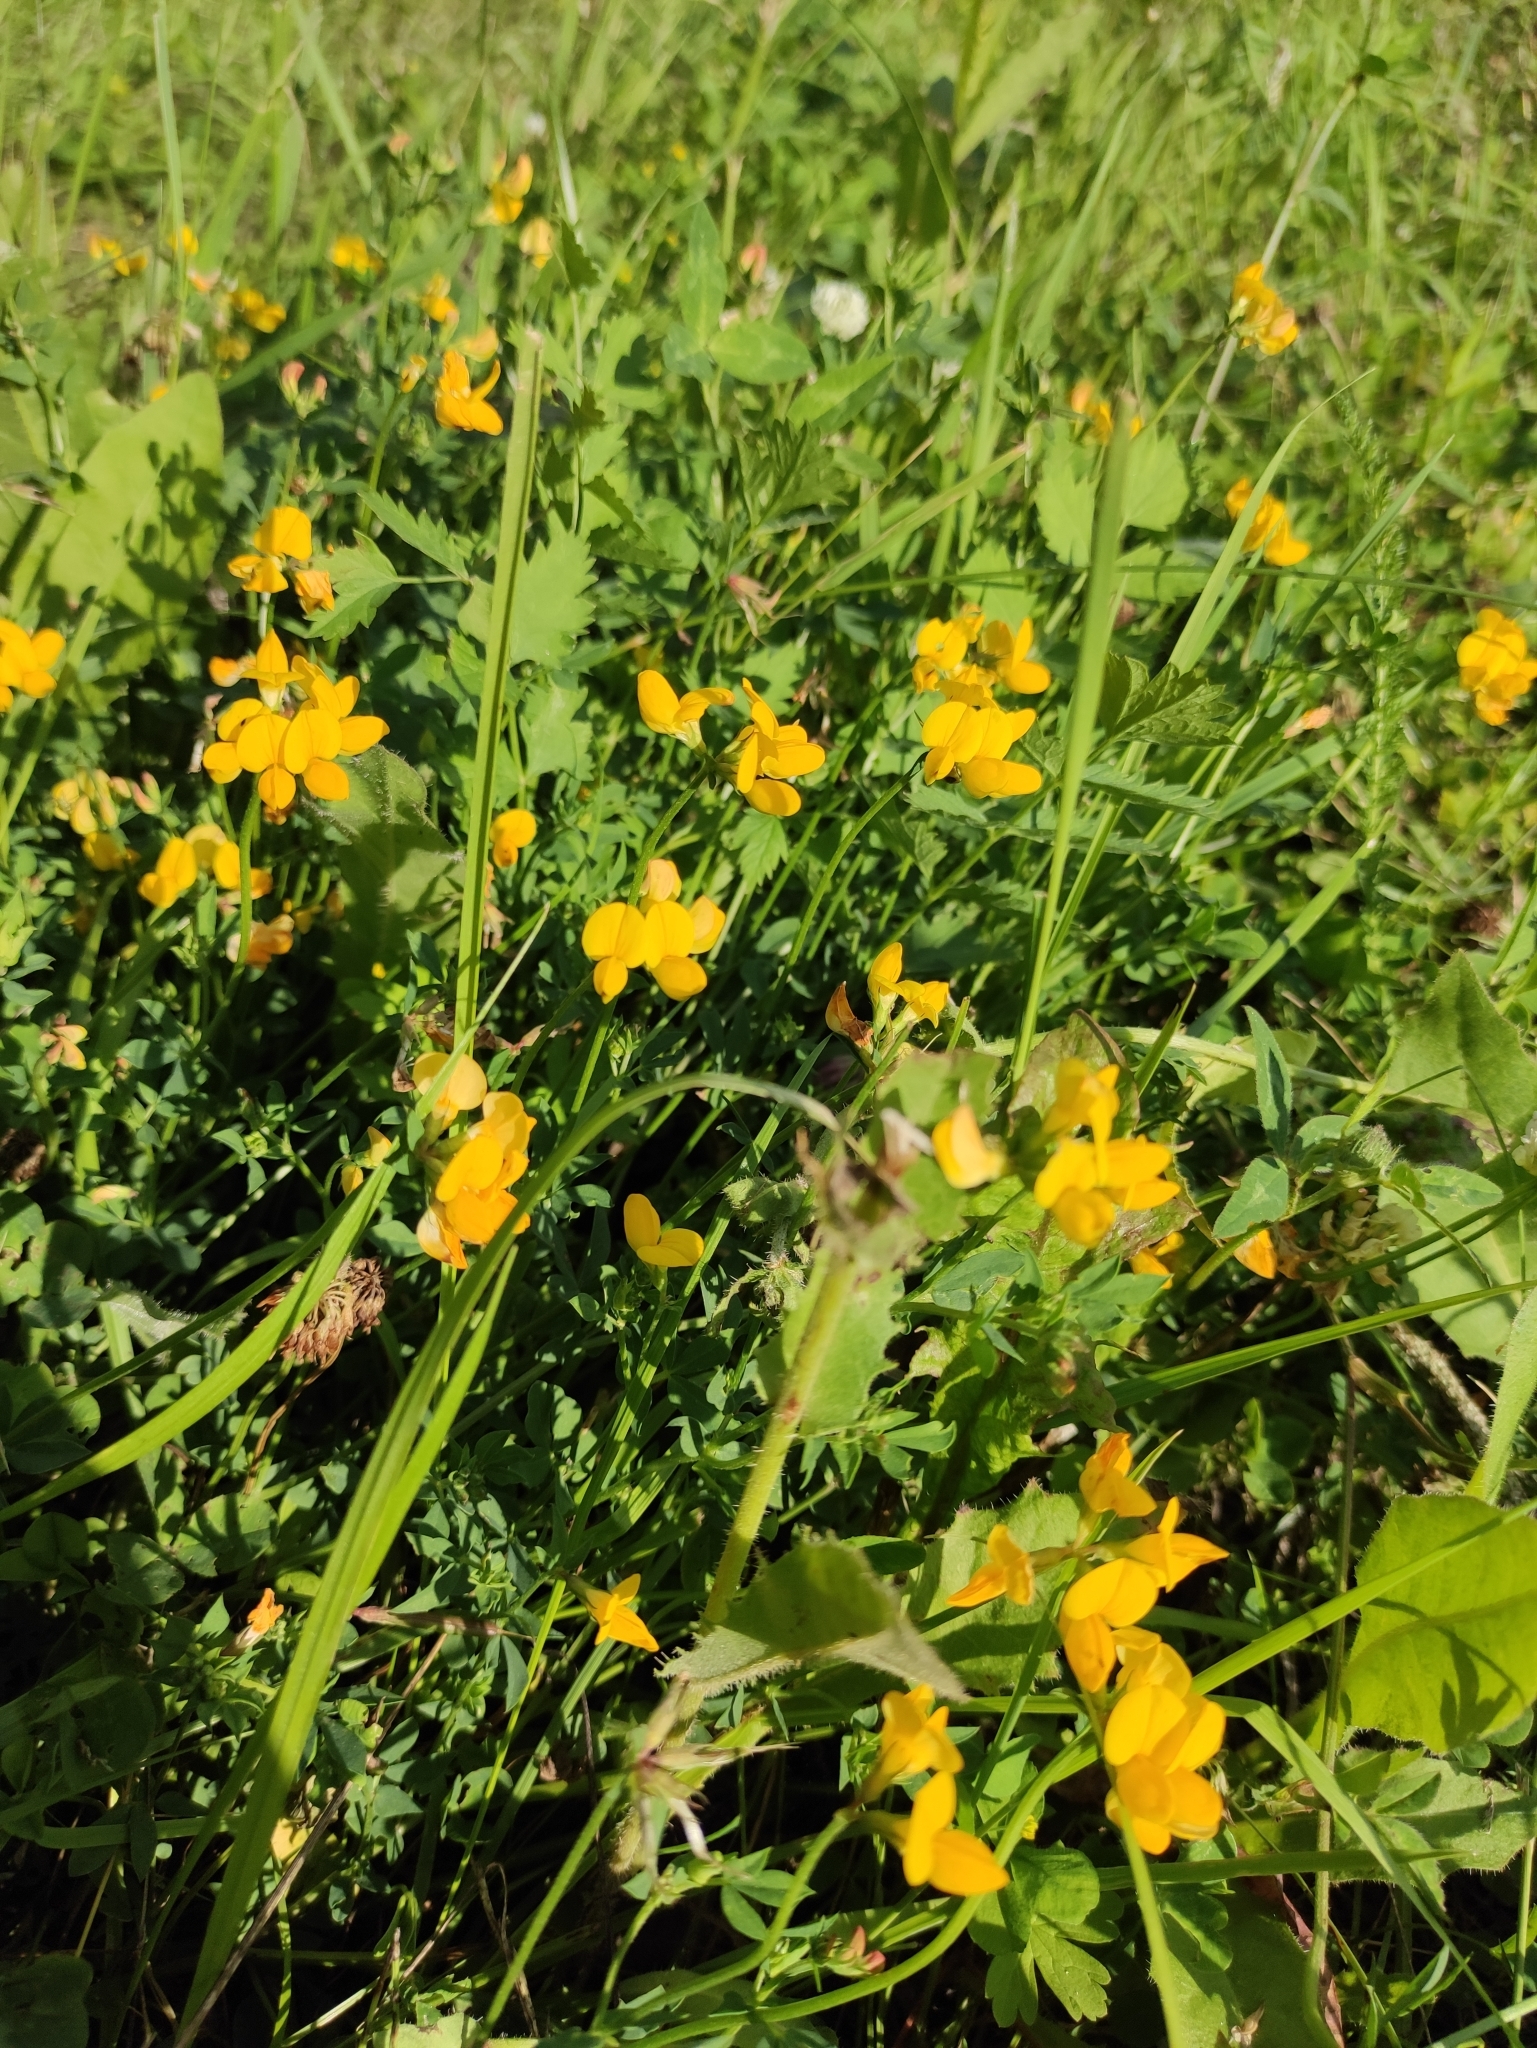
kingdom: Plantae
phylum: Tracheophyta
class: Magnoliopsida
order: Fabales
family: Fabaceae
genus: Lotus
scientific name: Lotus corniculatus
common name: Common bird's-foot-trefoil
